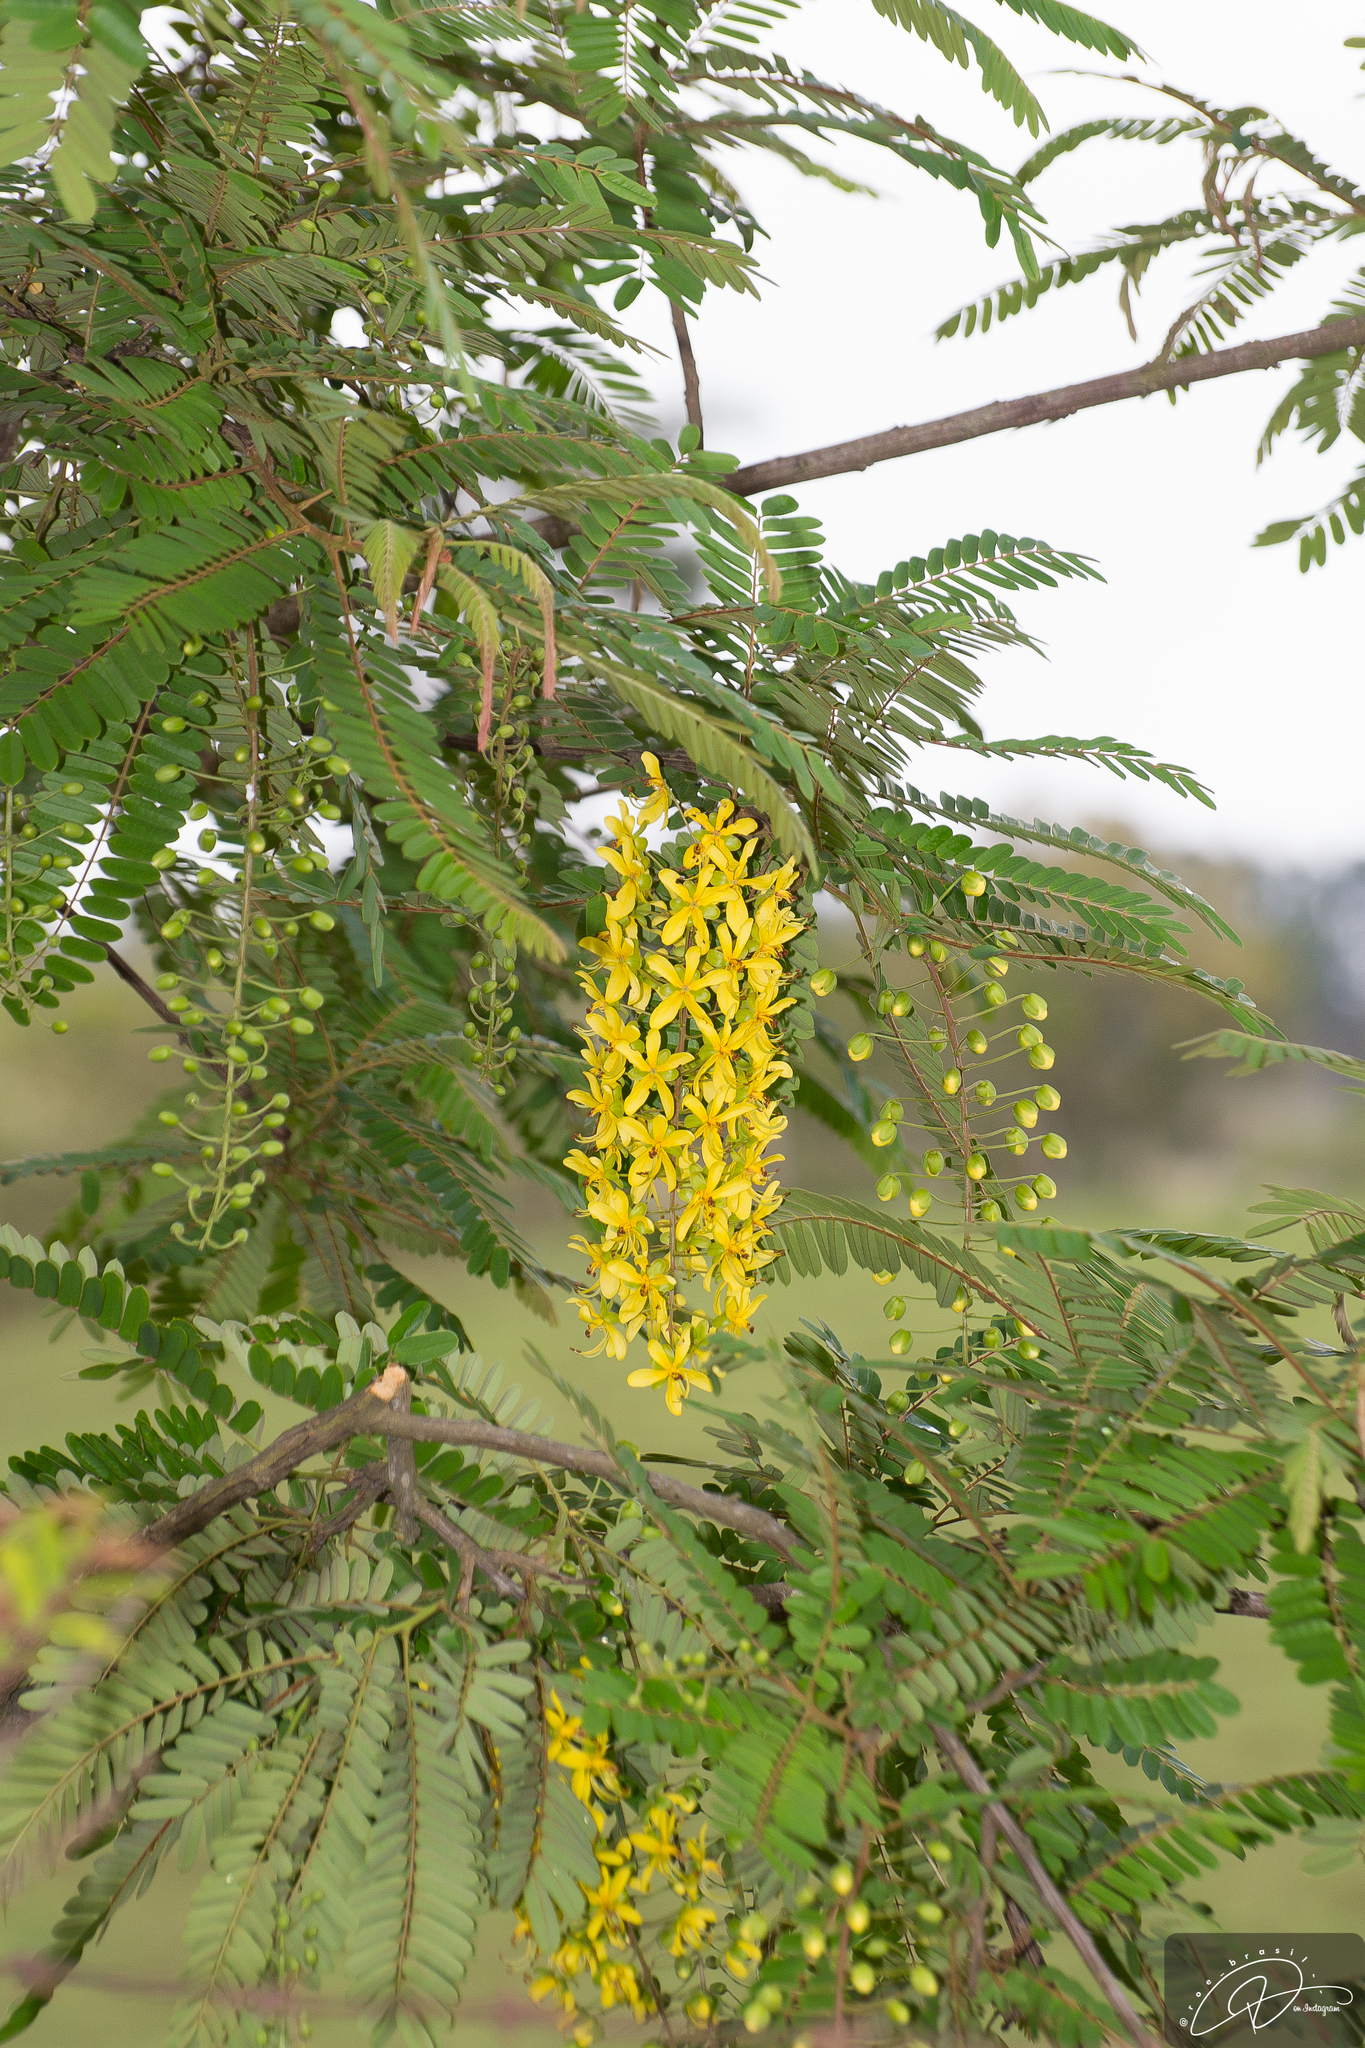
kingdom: Plantae
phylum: Tracheophyta
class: Magnoliopsida
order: Fabales
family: Fabaceae
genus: Cassia
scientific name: Cassia ferruginea
